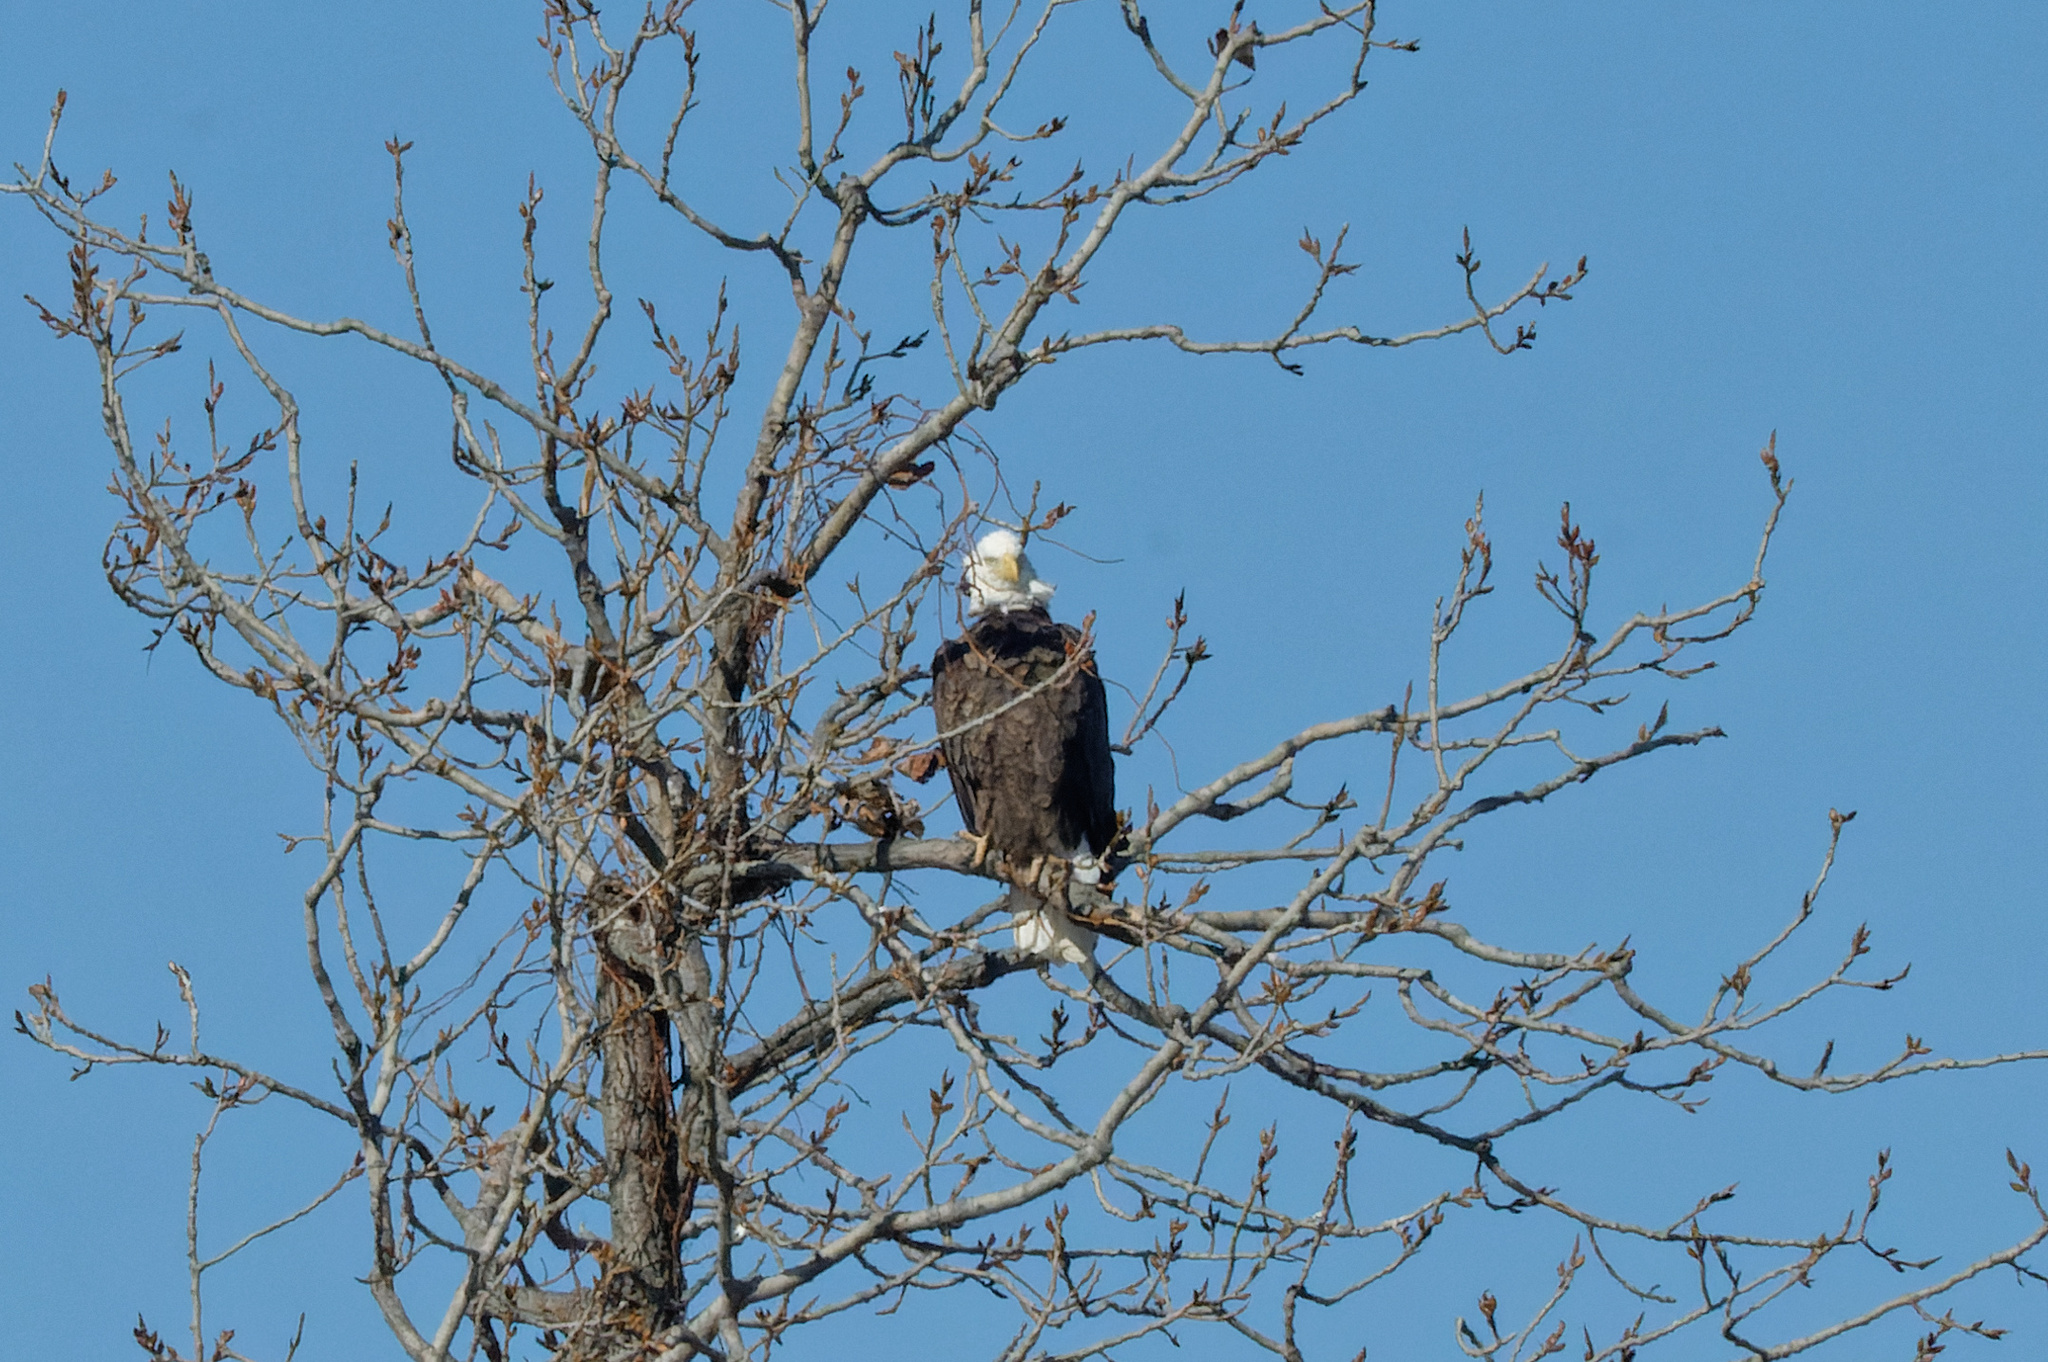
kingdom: Animalia
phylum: Chordata
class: Aves
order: Accipitriformes
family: Accipitridae
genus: Haliaeetus
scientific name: Haliaeetus leucocephalus
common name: Bald eagle
